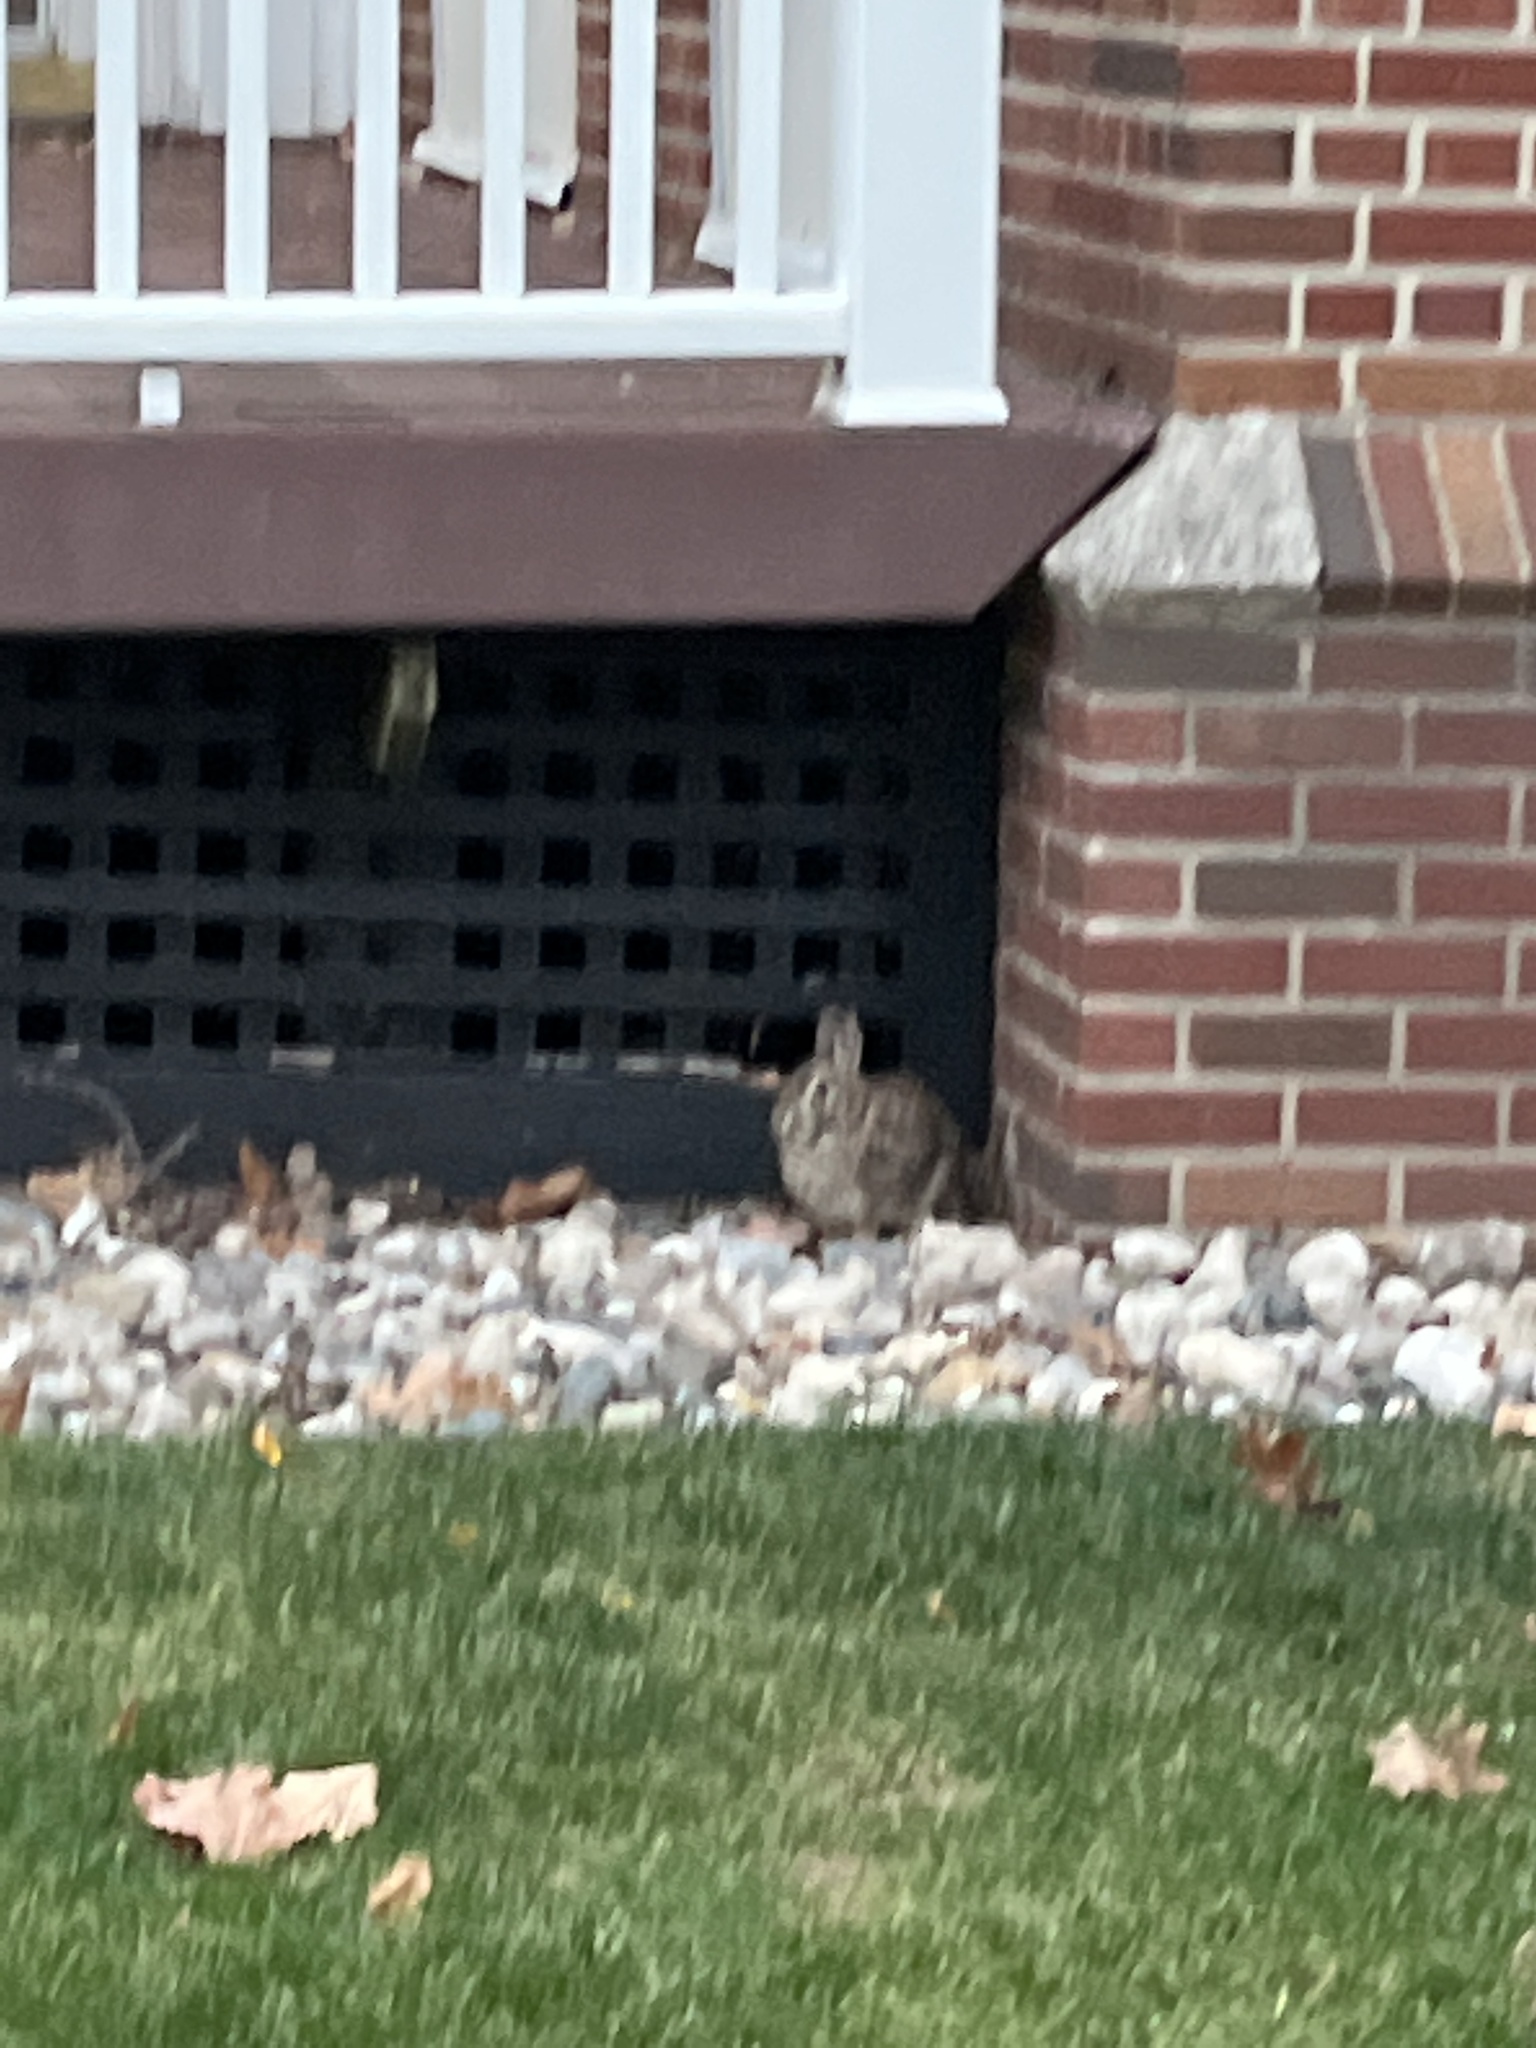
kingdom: Animalia
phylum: Chordata
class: Mammalia
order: Lagomorpha
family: Leporidae
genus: Sylvilagus
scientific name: Sylvilagus floridanus
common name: Eastern cottontail
